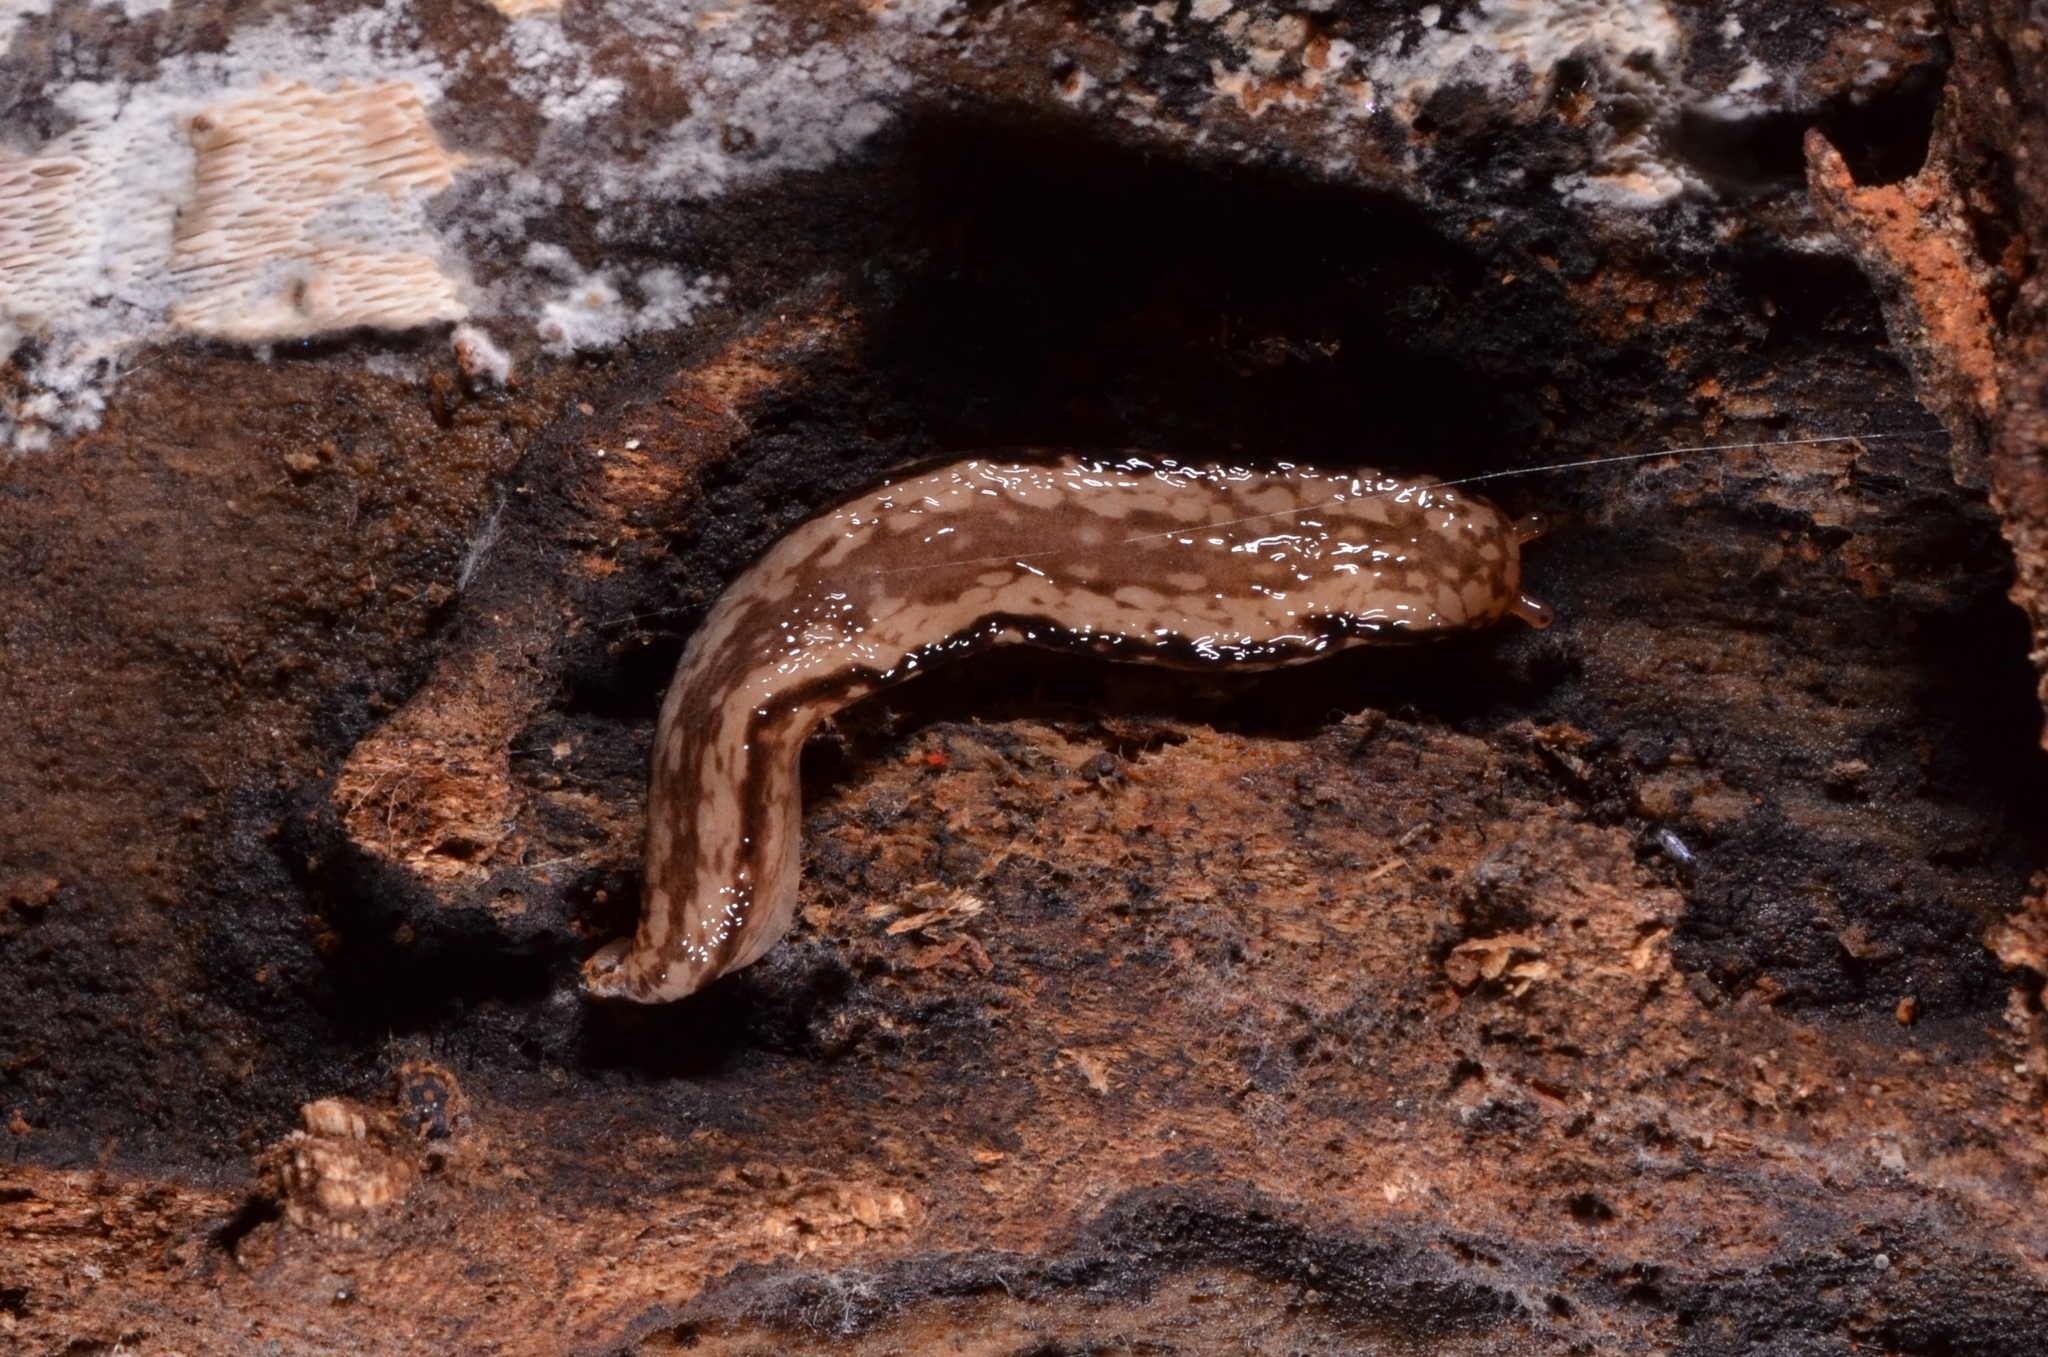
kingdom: Animalia
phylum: Mollusca
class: Gastropoda
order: Stylommatophora
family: Philomycidae
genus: Meghimatium
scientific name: Meghimatium pictum
